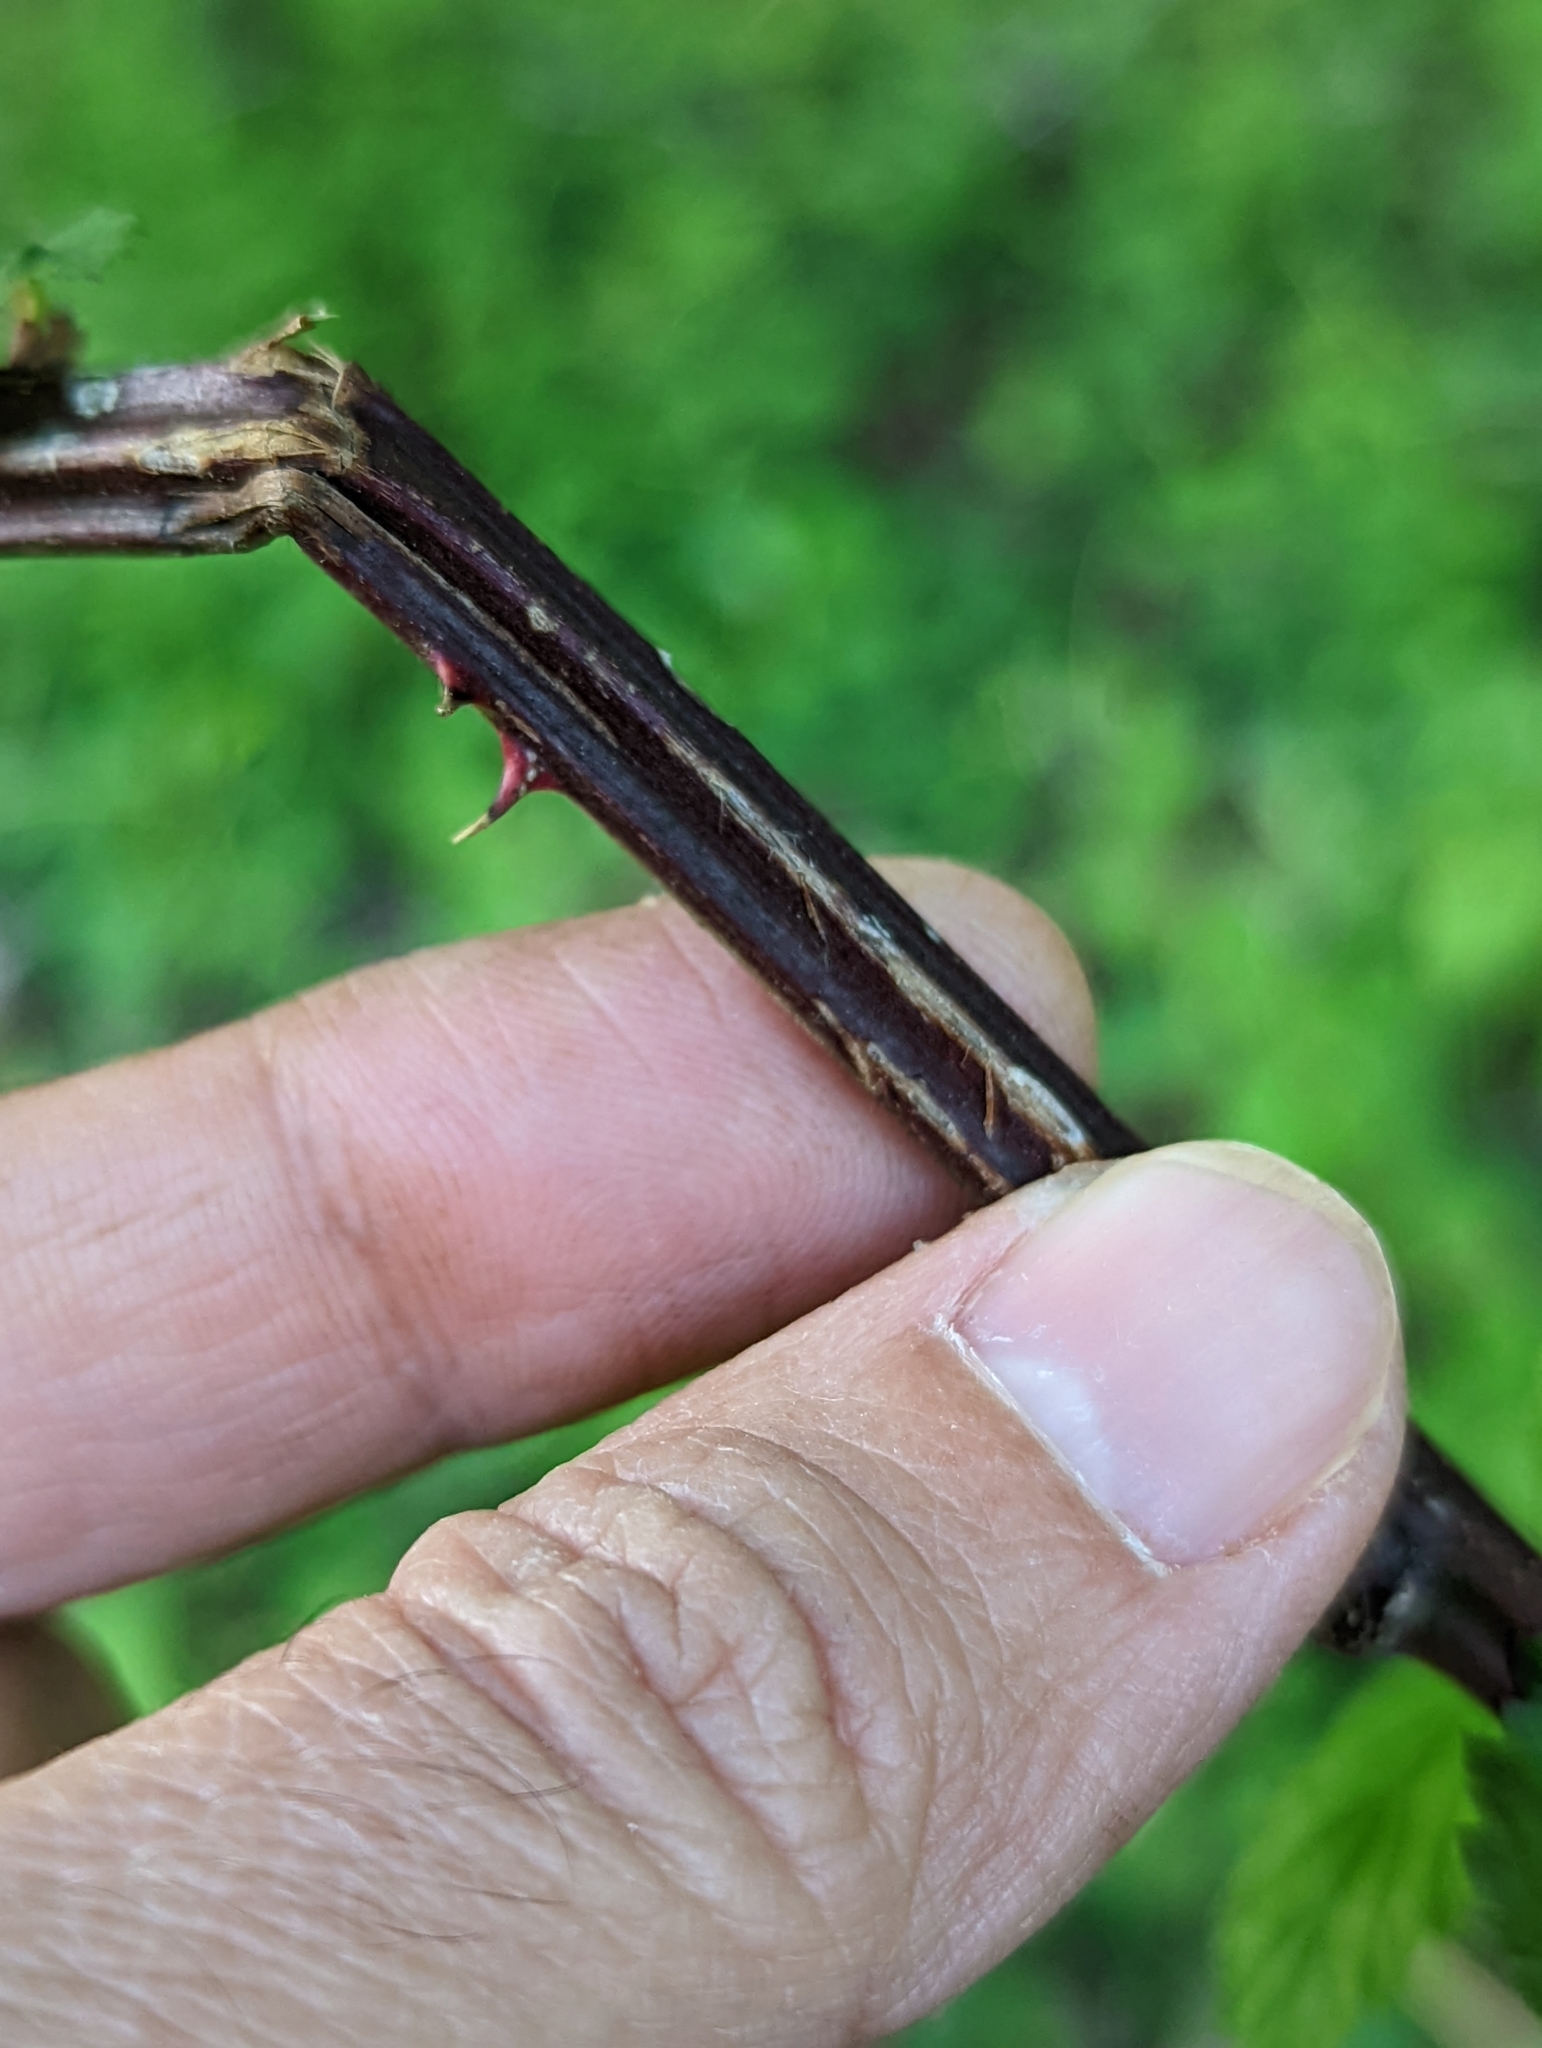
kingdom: Plantae
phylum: Tracheophyta
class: Magnoliopsida
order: Rosales
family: Rosaceae
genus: Rubus
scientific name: Rubus pensilvanicus
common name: Pennsylvania blackberry
